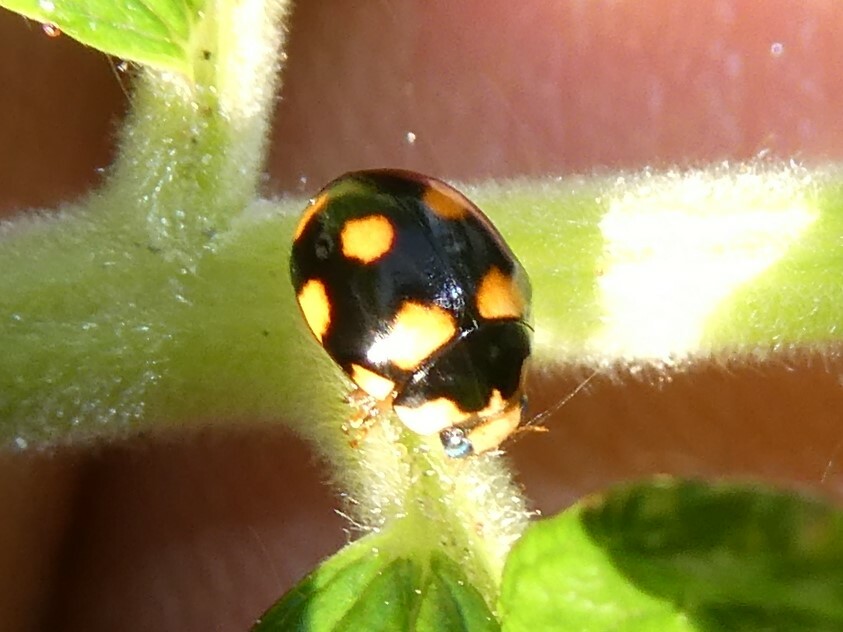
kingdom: Animalia
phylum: Arthropoda
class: Insecta
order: Coleoptera
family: Coccinellidae
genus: Brachiacantha
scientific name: Brachiacantha ursina
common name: Ursine spurleg lady beetle
